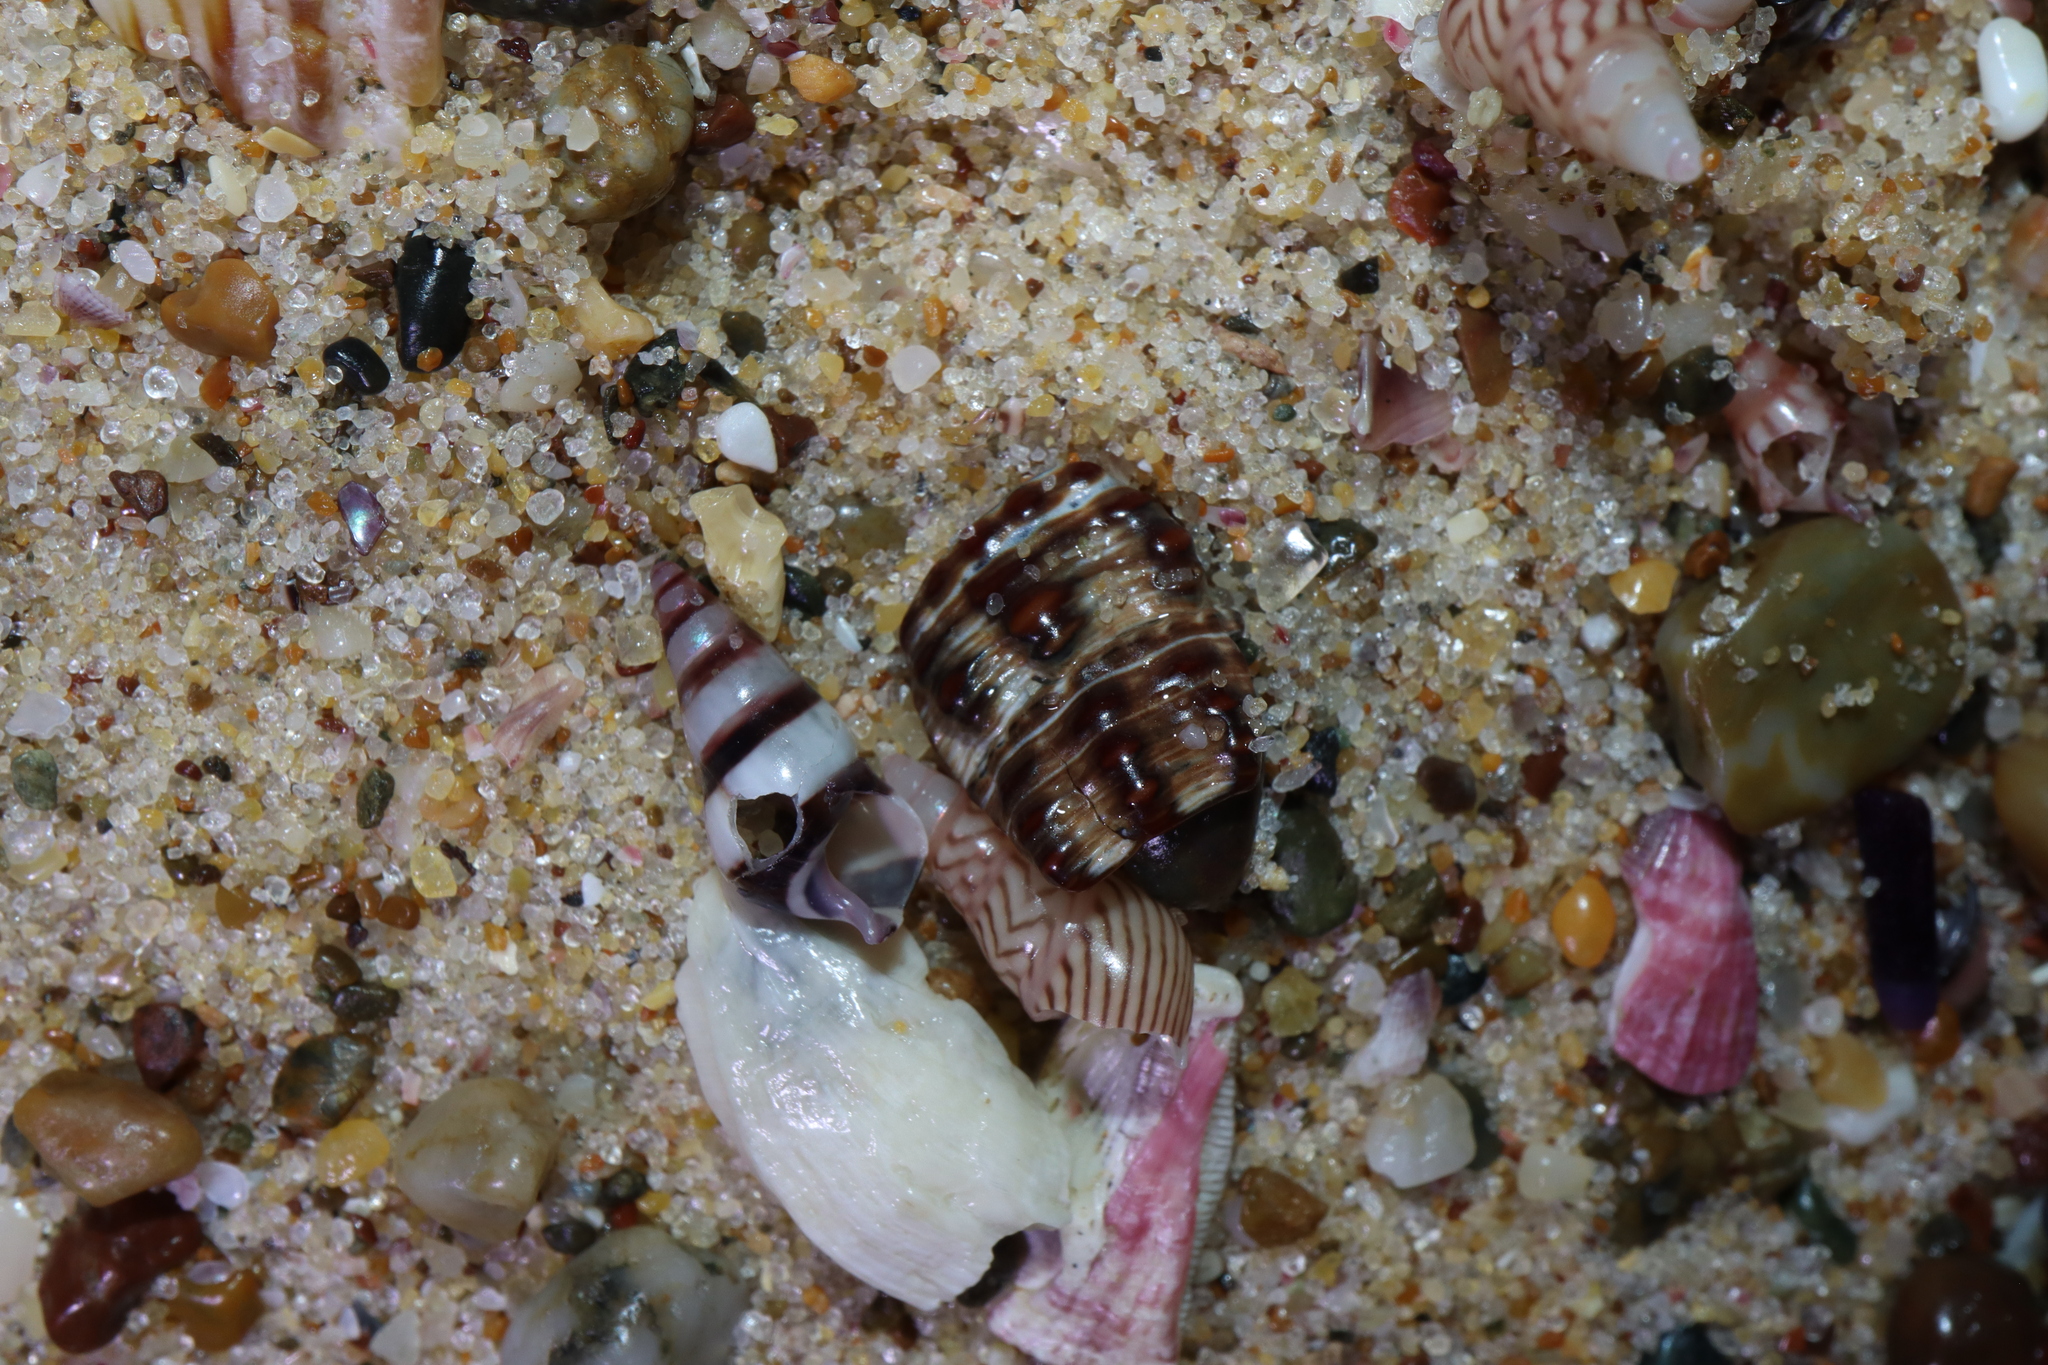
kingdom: Animalia
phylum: Mollusca
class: Gastropoda
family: Batillariidae
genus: Batillaria
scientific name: Batillaria australis
